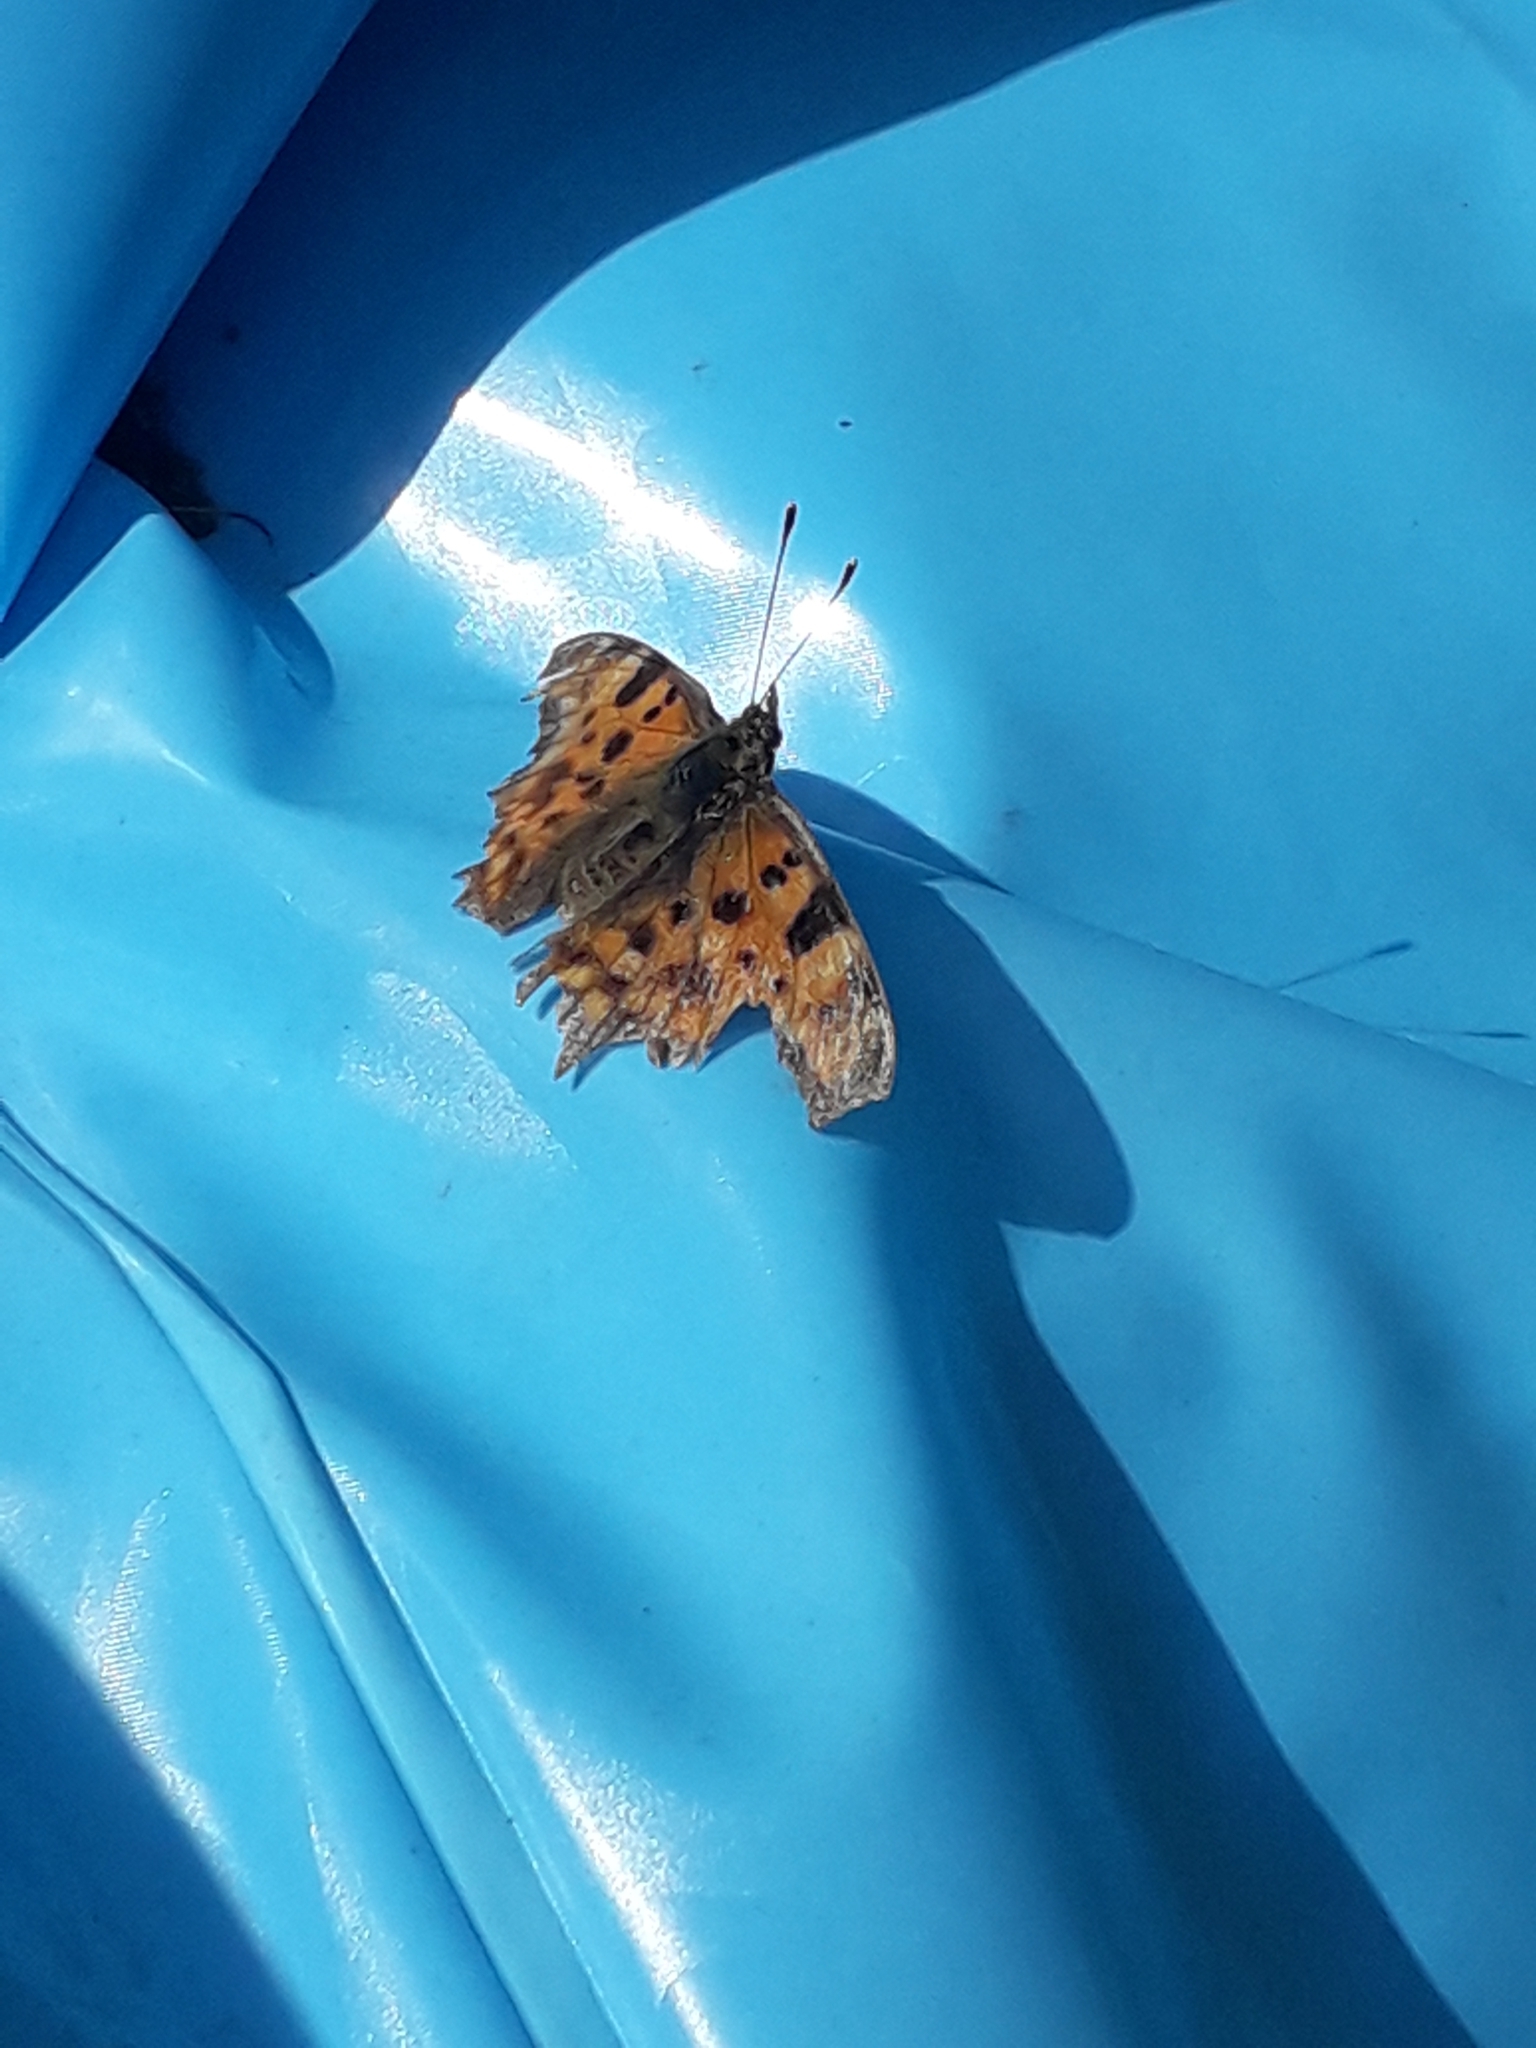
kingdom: Animalia
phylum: Arthropoda
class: Insecta
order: Lepidoptera
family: Nymphalidae
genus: Polygonia
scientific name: Polygonia c-album
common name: Comma
